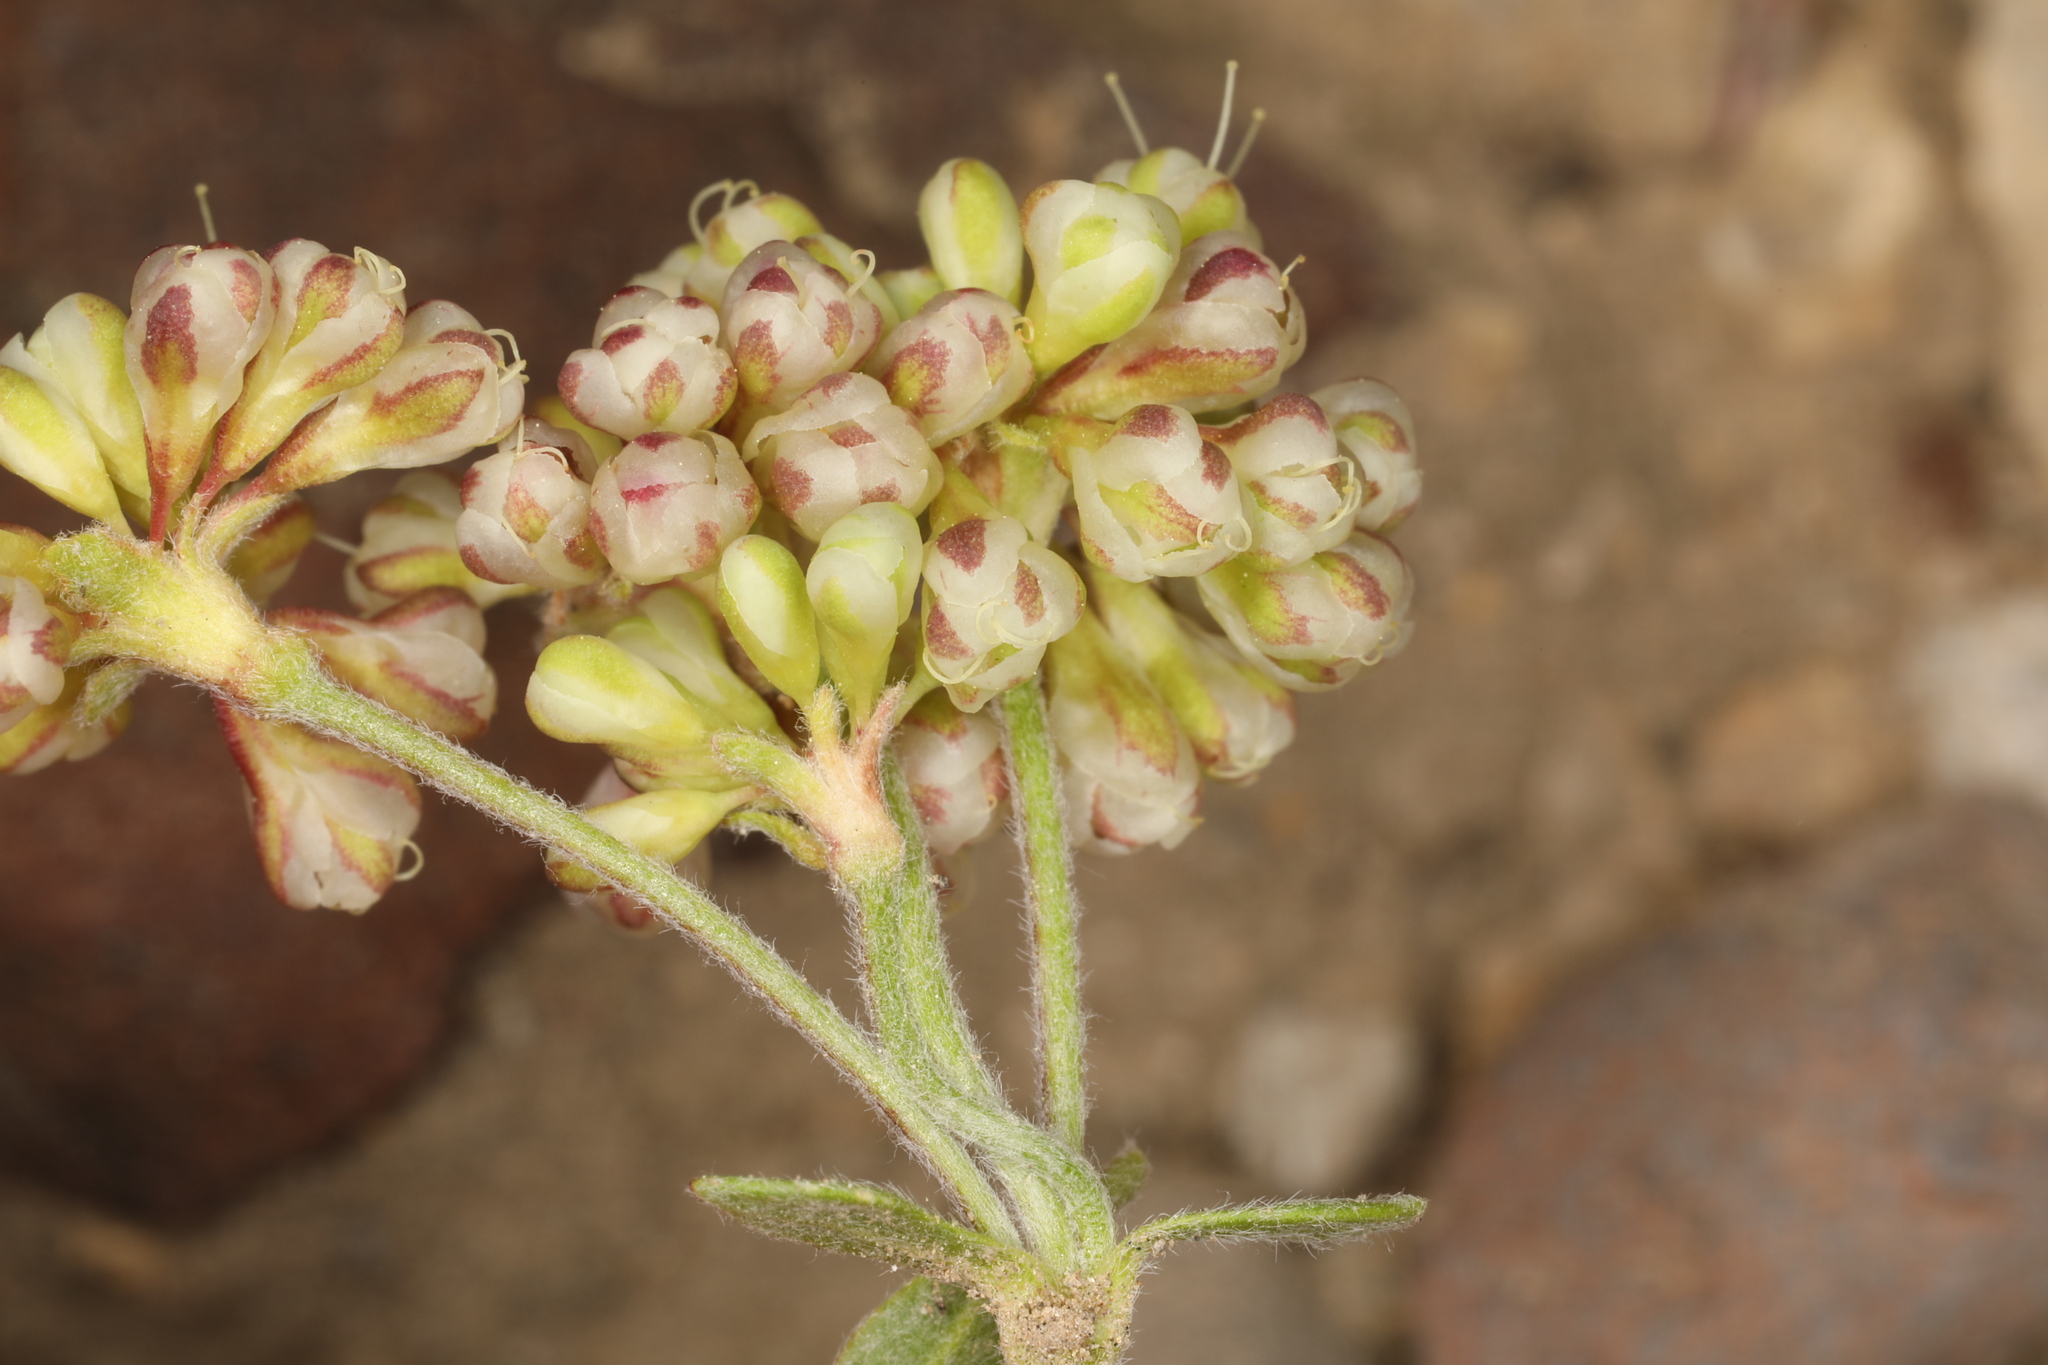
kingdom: Plantae
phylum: Tracheophyta
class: Magnoliopsida
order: Caryophyllales
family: Polygonaceae
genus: Eriogonum
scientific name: Eriogonum umbellatum
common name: Sulfur-buckwheat
